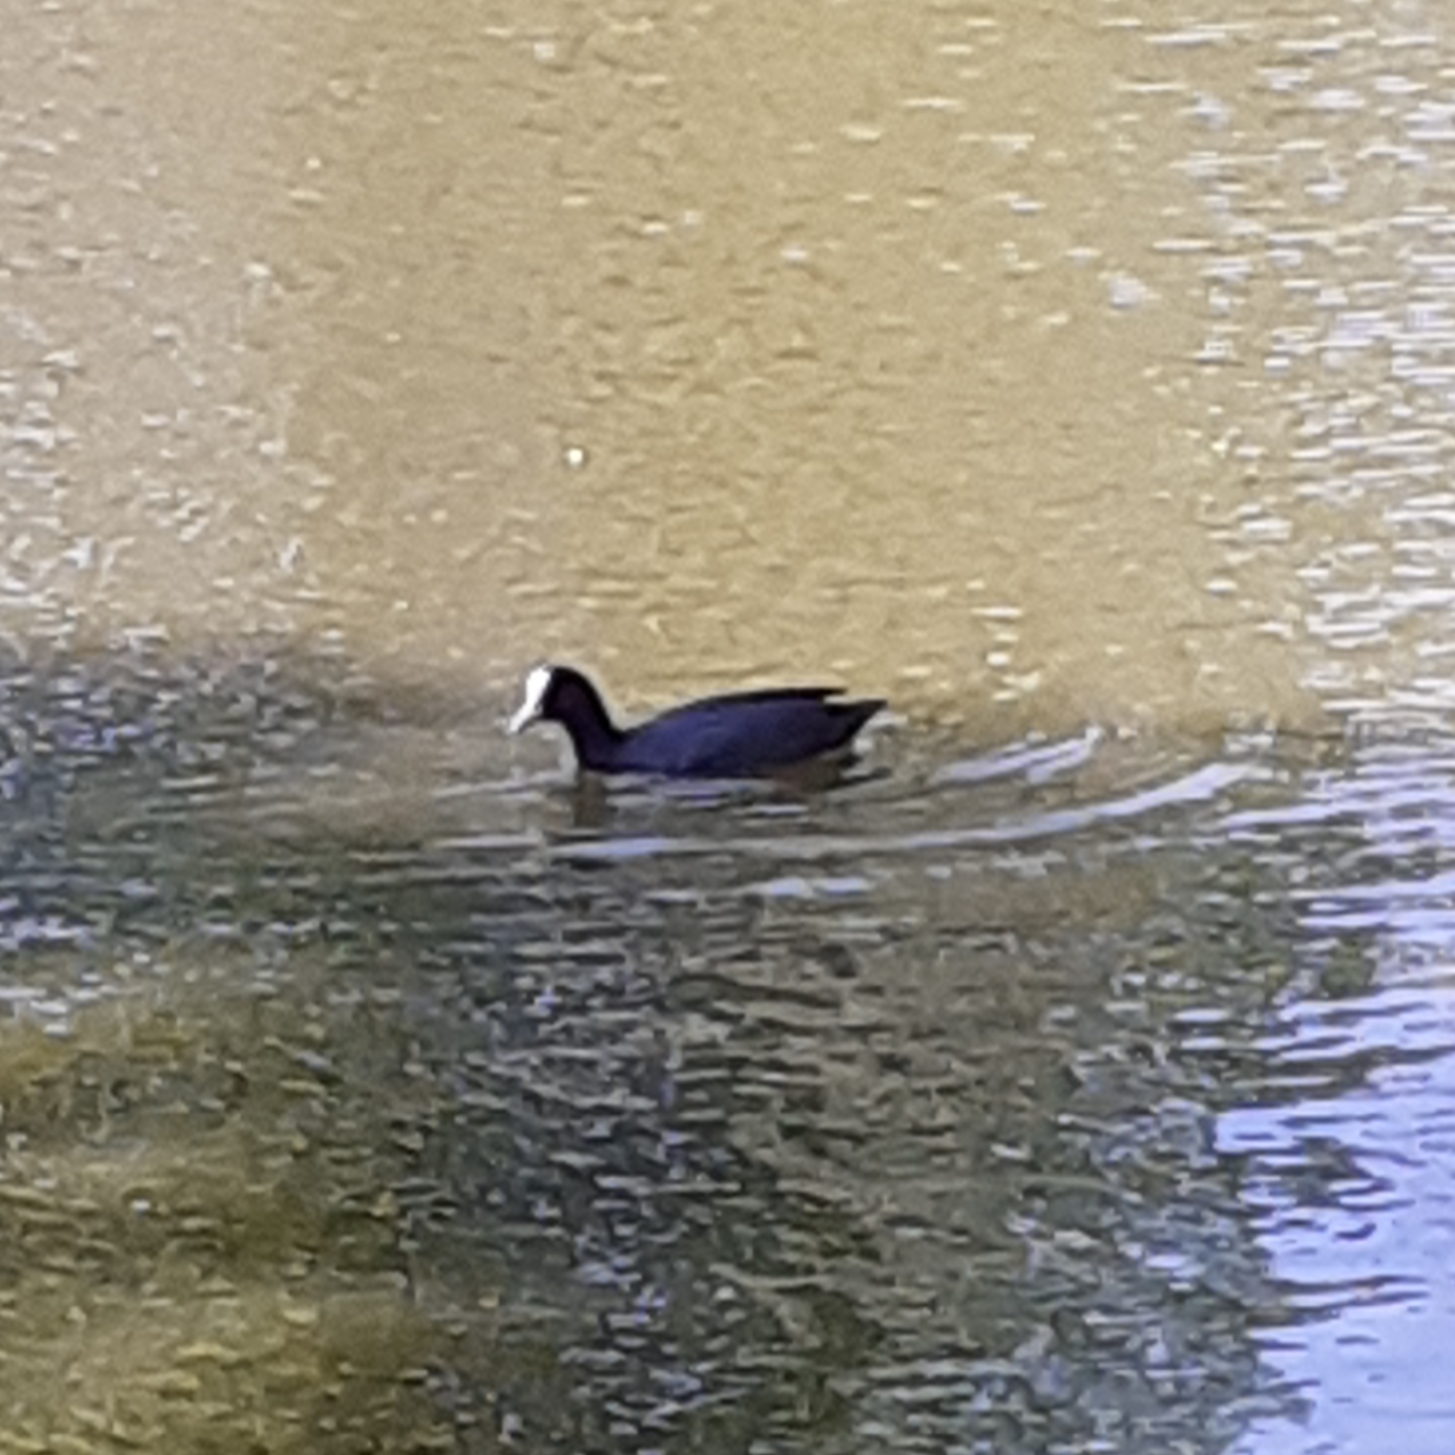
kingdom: Animalia
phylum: Chordata
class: Aves
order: Gruiformes
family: Rallidae
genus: Fulica
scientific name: Fulica atra
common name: Eurasian coot
